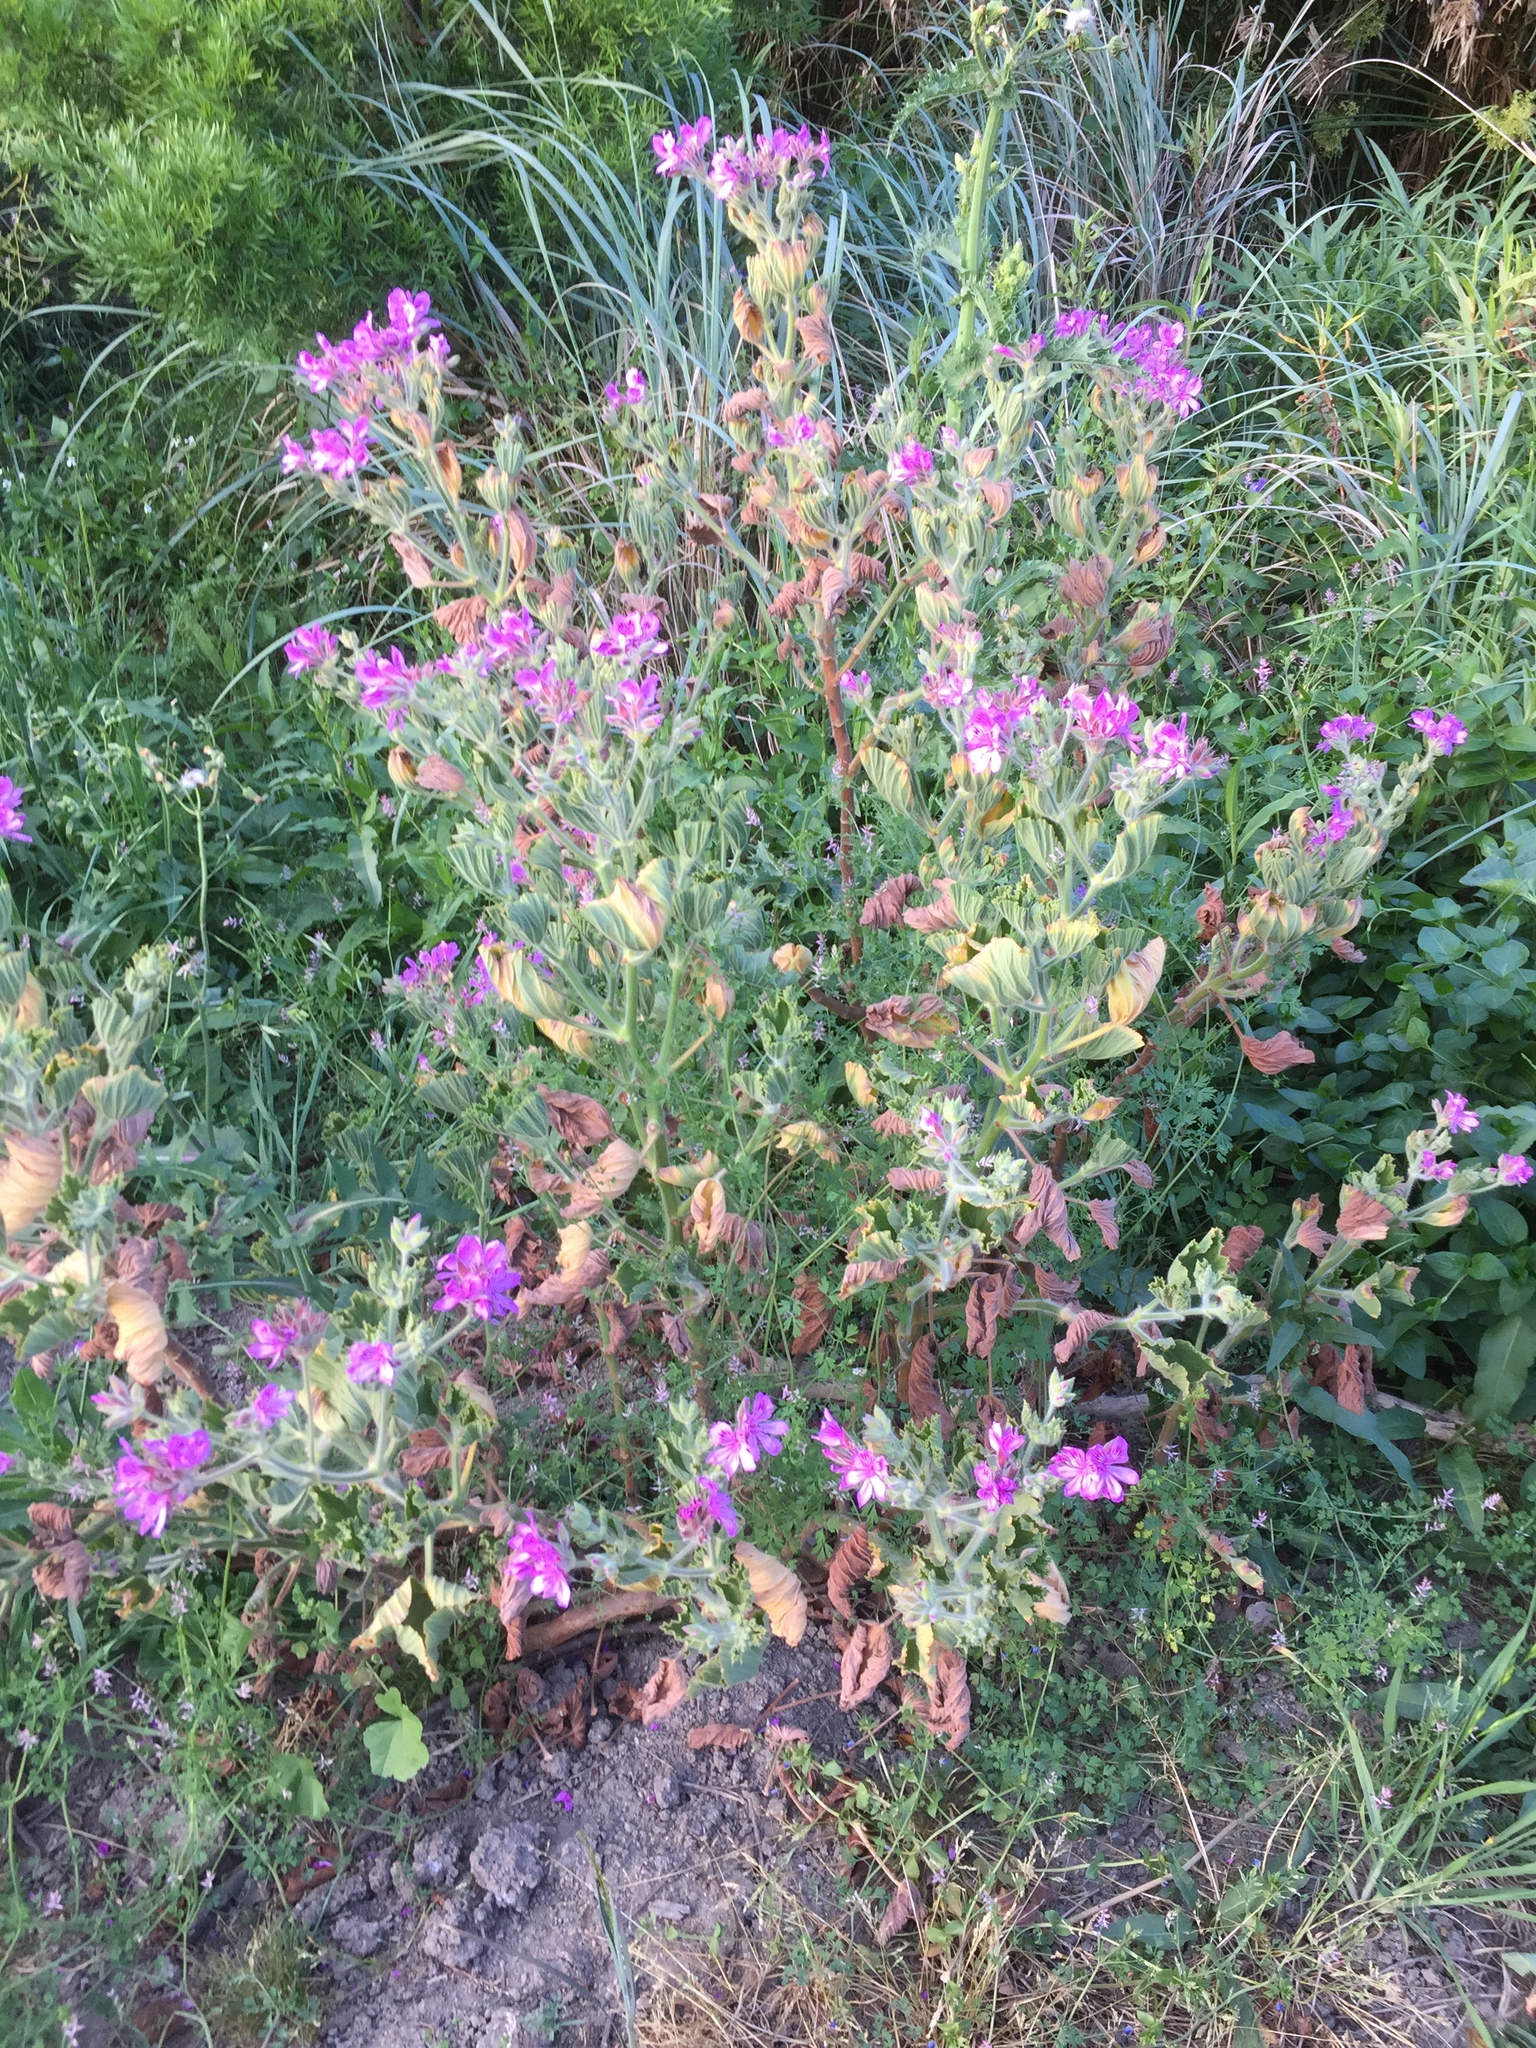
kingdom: Plantae
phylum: Tracheophyta
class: Magnoliopsida
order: Geraniales
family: Geraniaceae
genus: Pelargonium
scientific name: Pelargonium cucullatum
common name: Tree pelargonium
